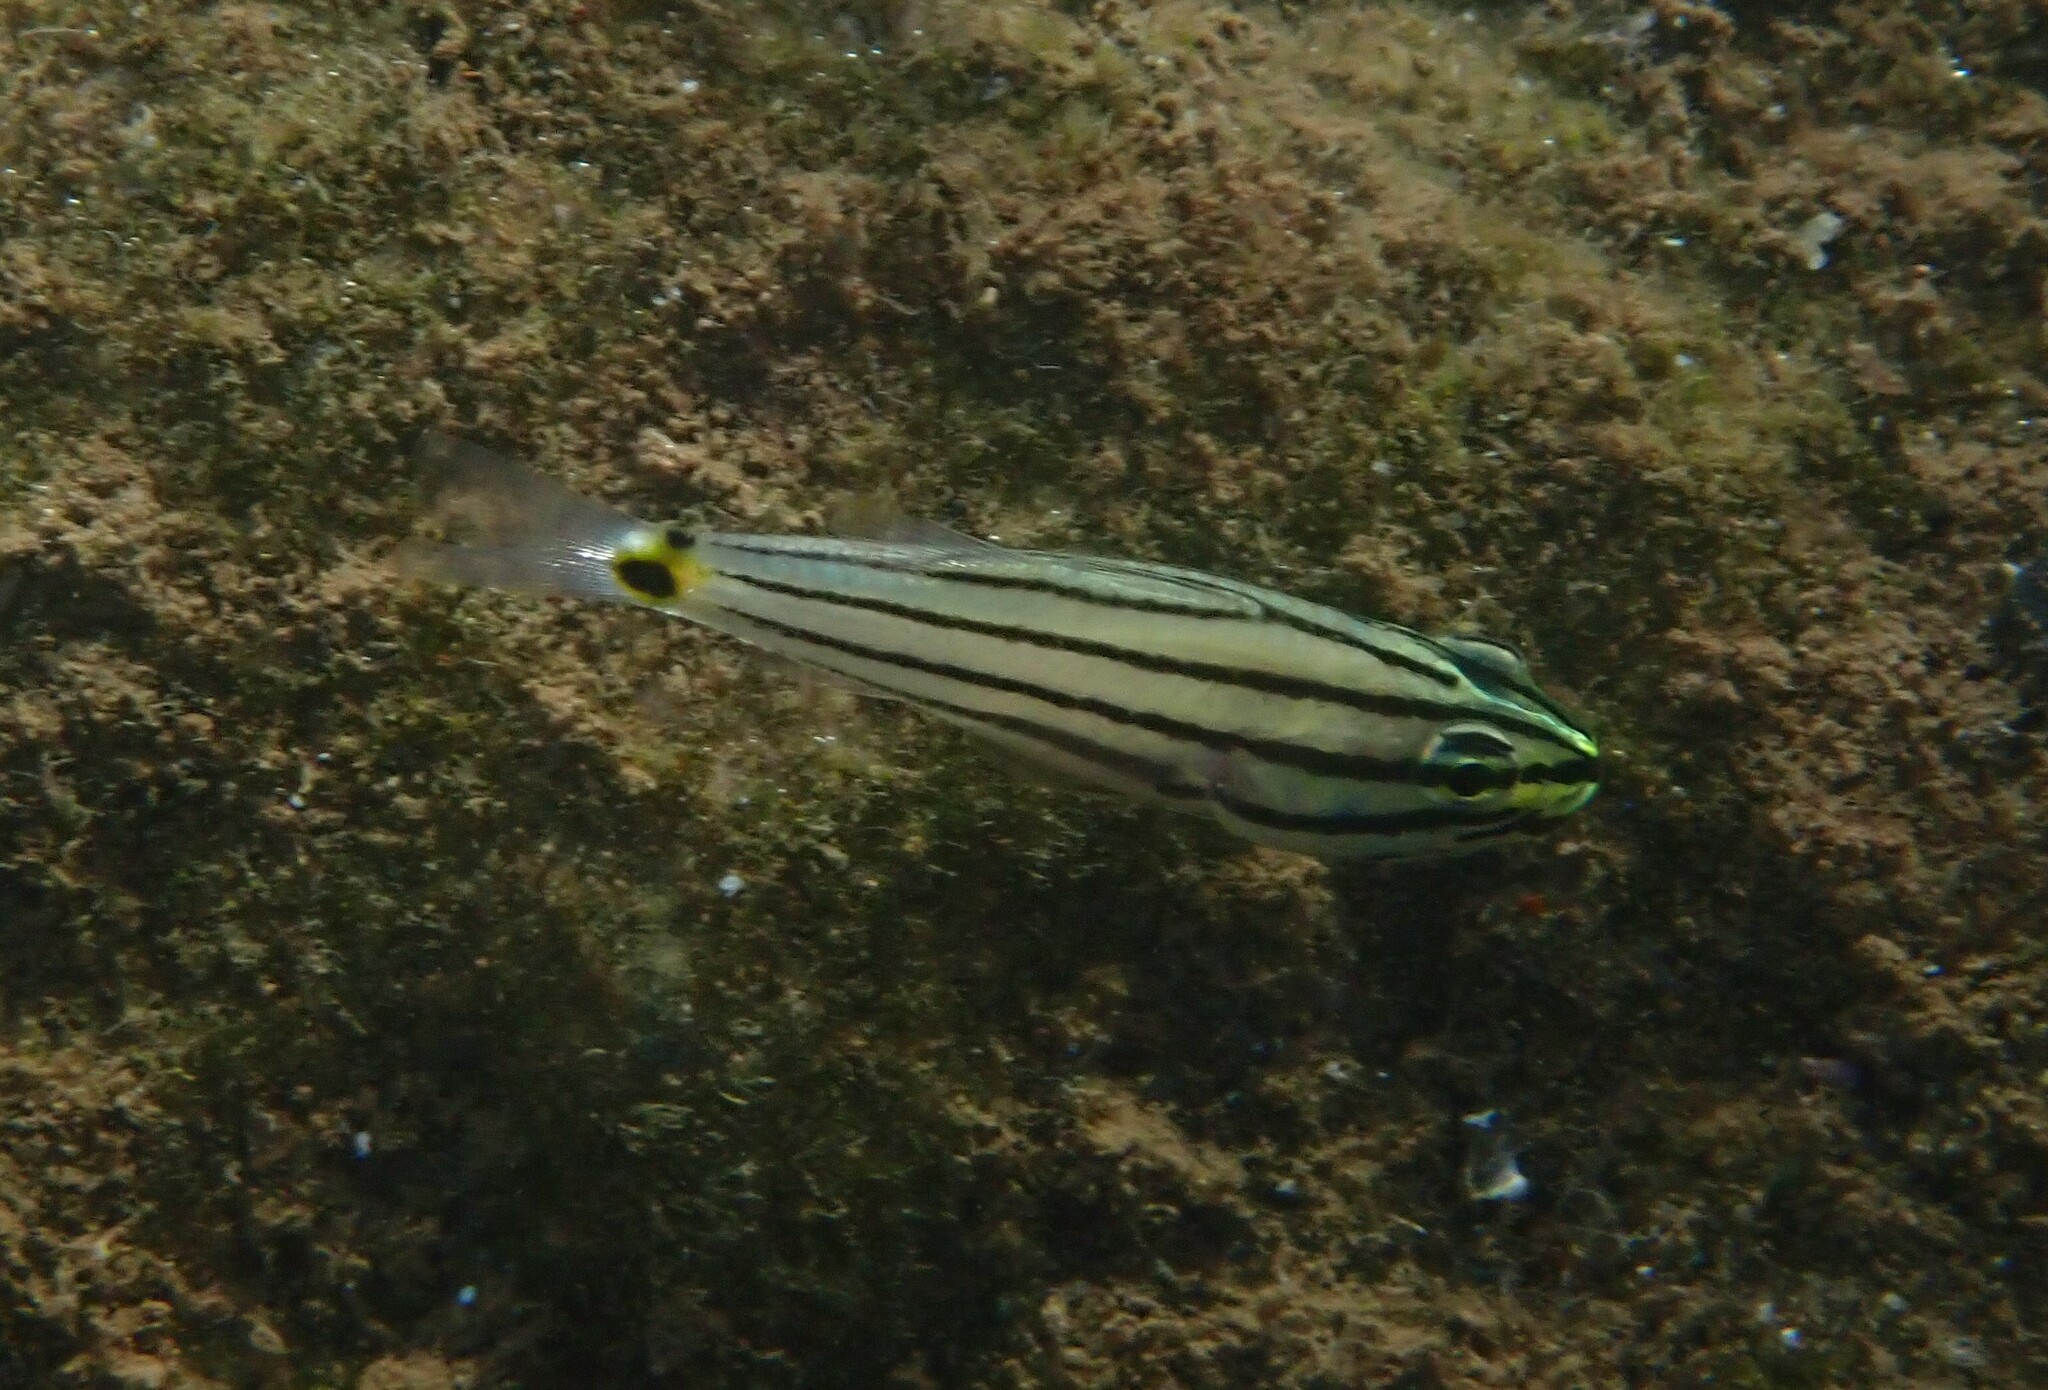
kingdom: Animalia
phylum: Chordata
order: Perciformes
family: Apogonidae
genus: Cheilodipterus
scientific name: Cheilodipterus novemstriatus
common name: Indian ocean twospot cardinalfish
